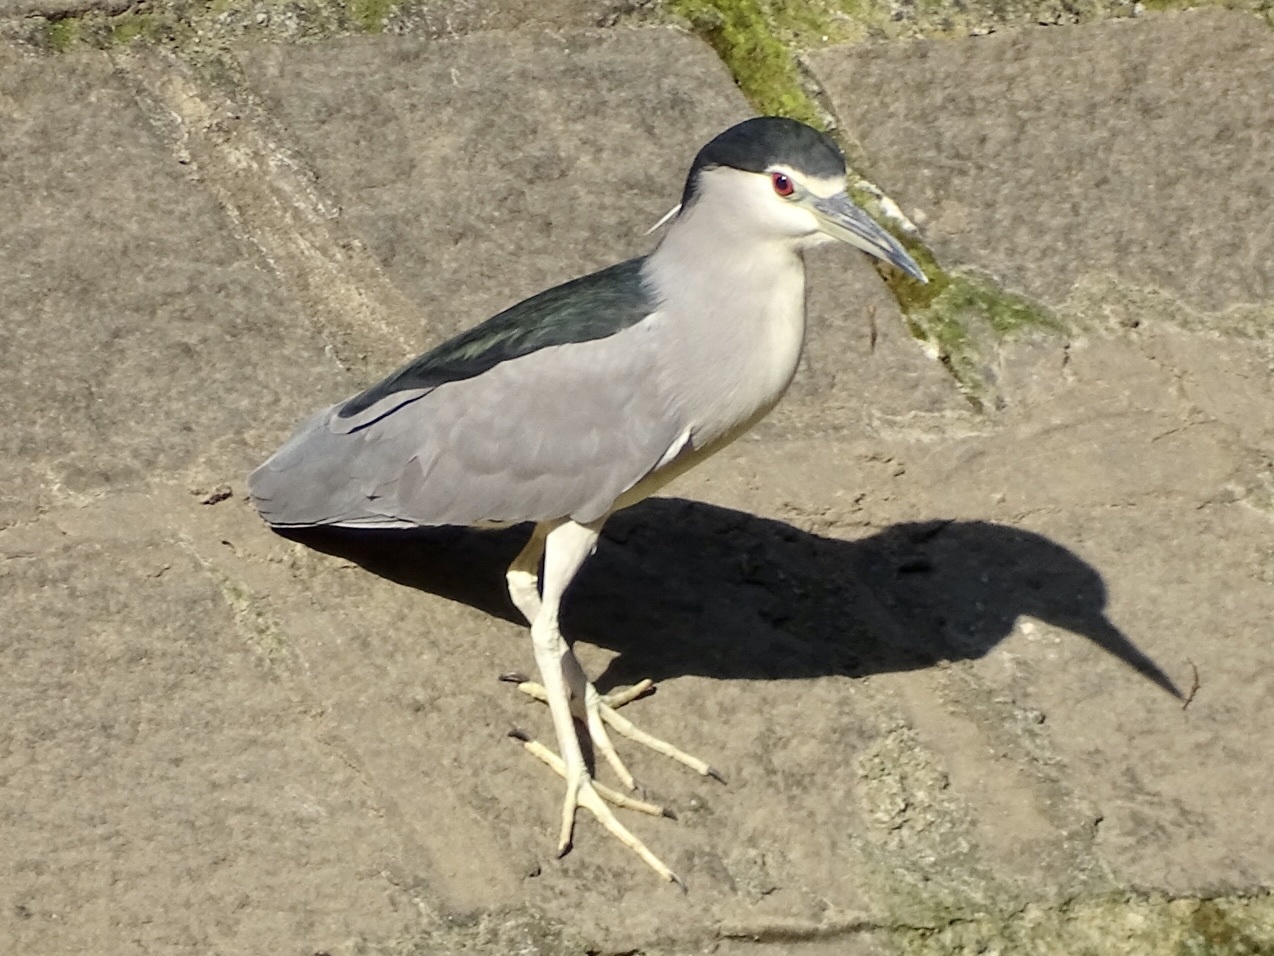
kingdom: Animalia
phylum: Chordata
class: Aves
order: Pelecaniformes
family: Ardeidae
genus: Nycticorax
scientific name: Nycticorax nycticorax
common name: Black-crowned night heron
